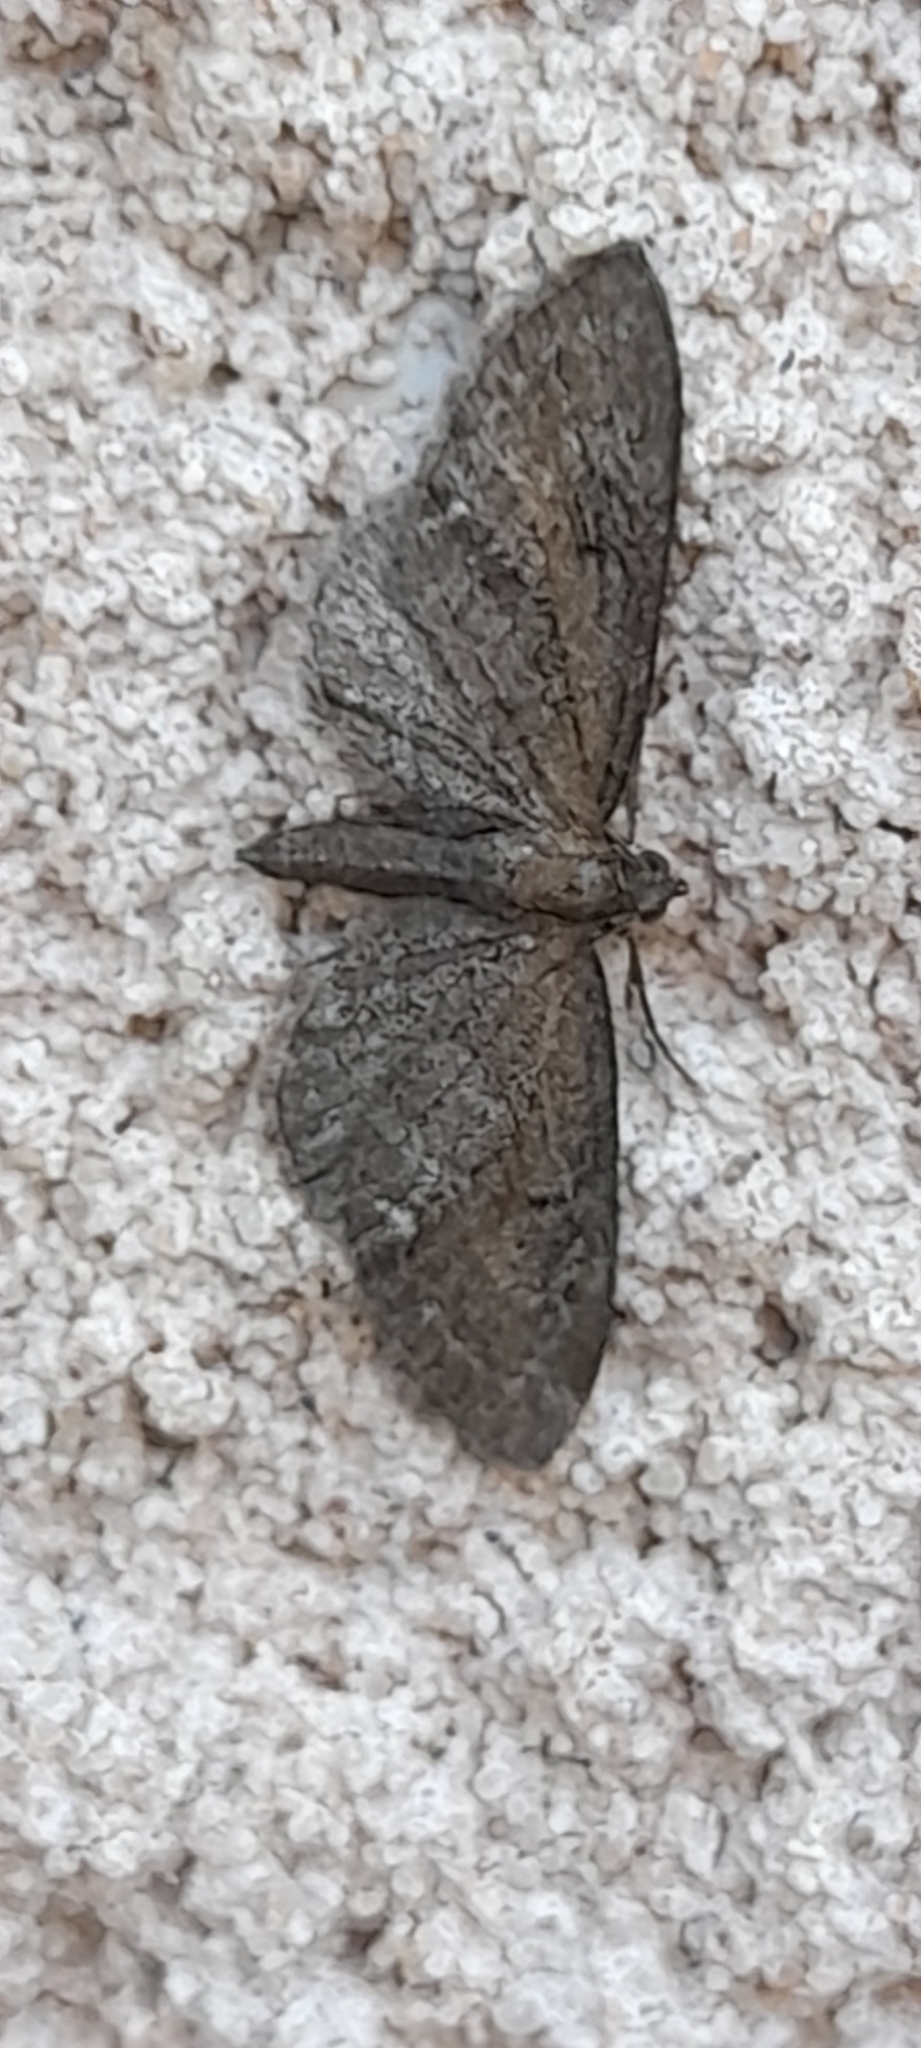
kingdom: Animalia
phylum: Arthropoda
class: Insecta
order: Lepidoptera
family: Geometridae
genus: Eupithecia
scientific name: Eupithecia vulgata
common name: Common pug
